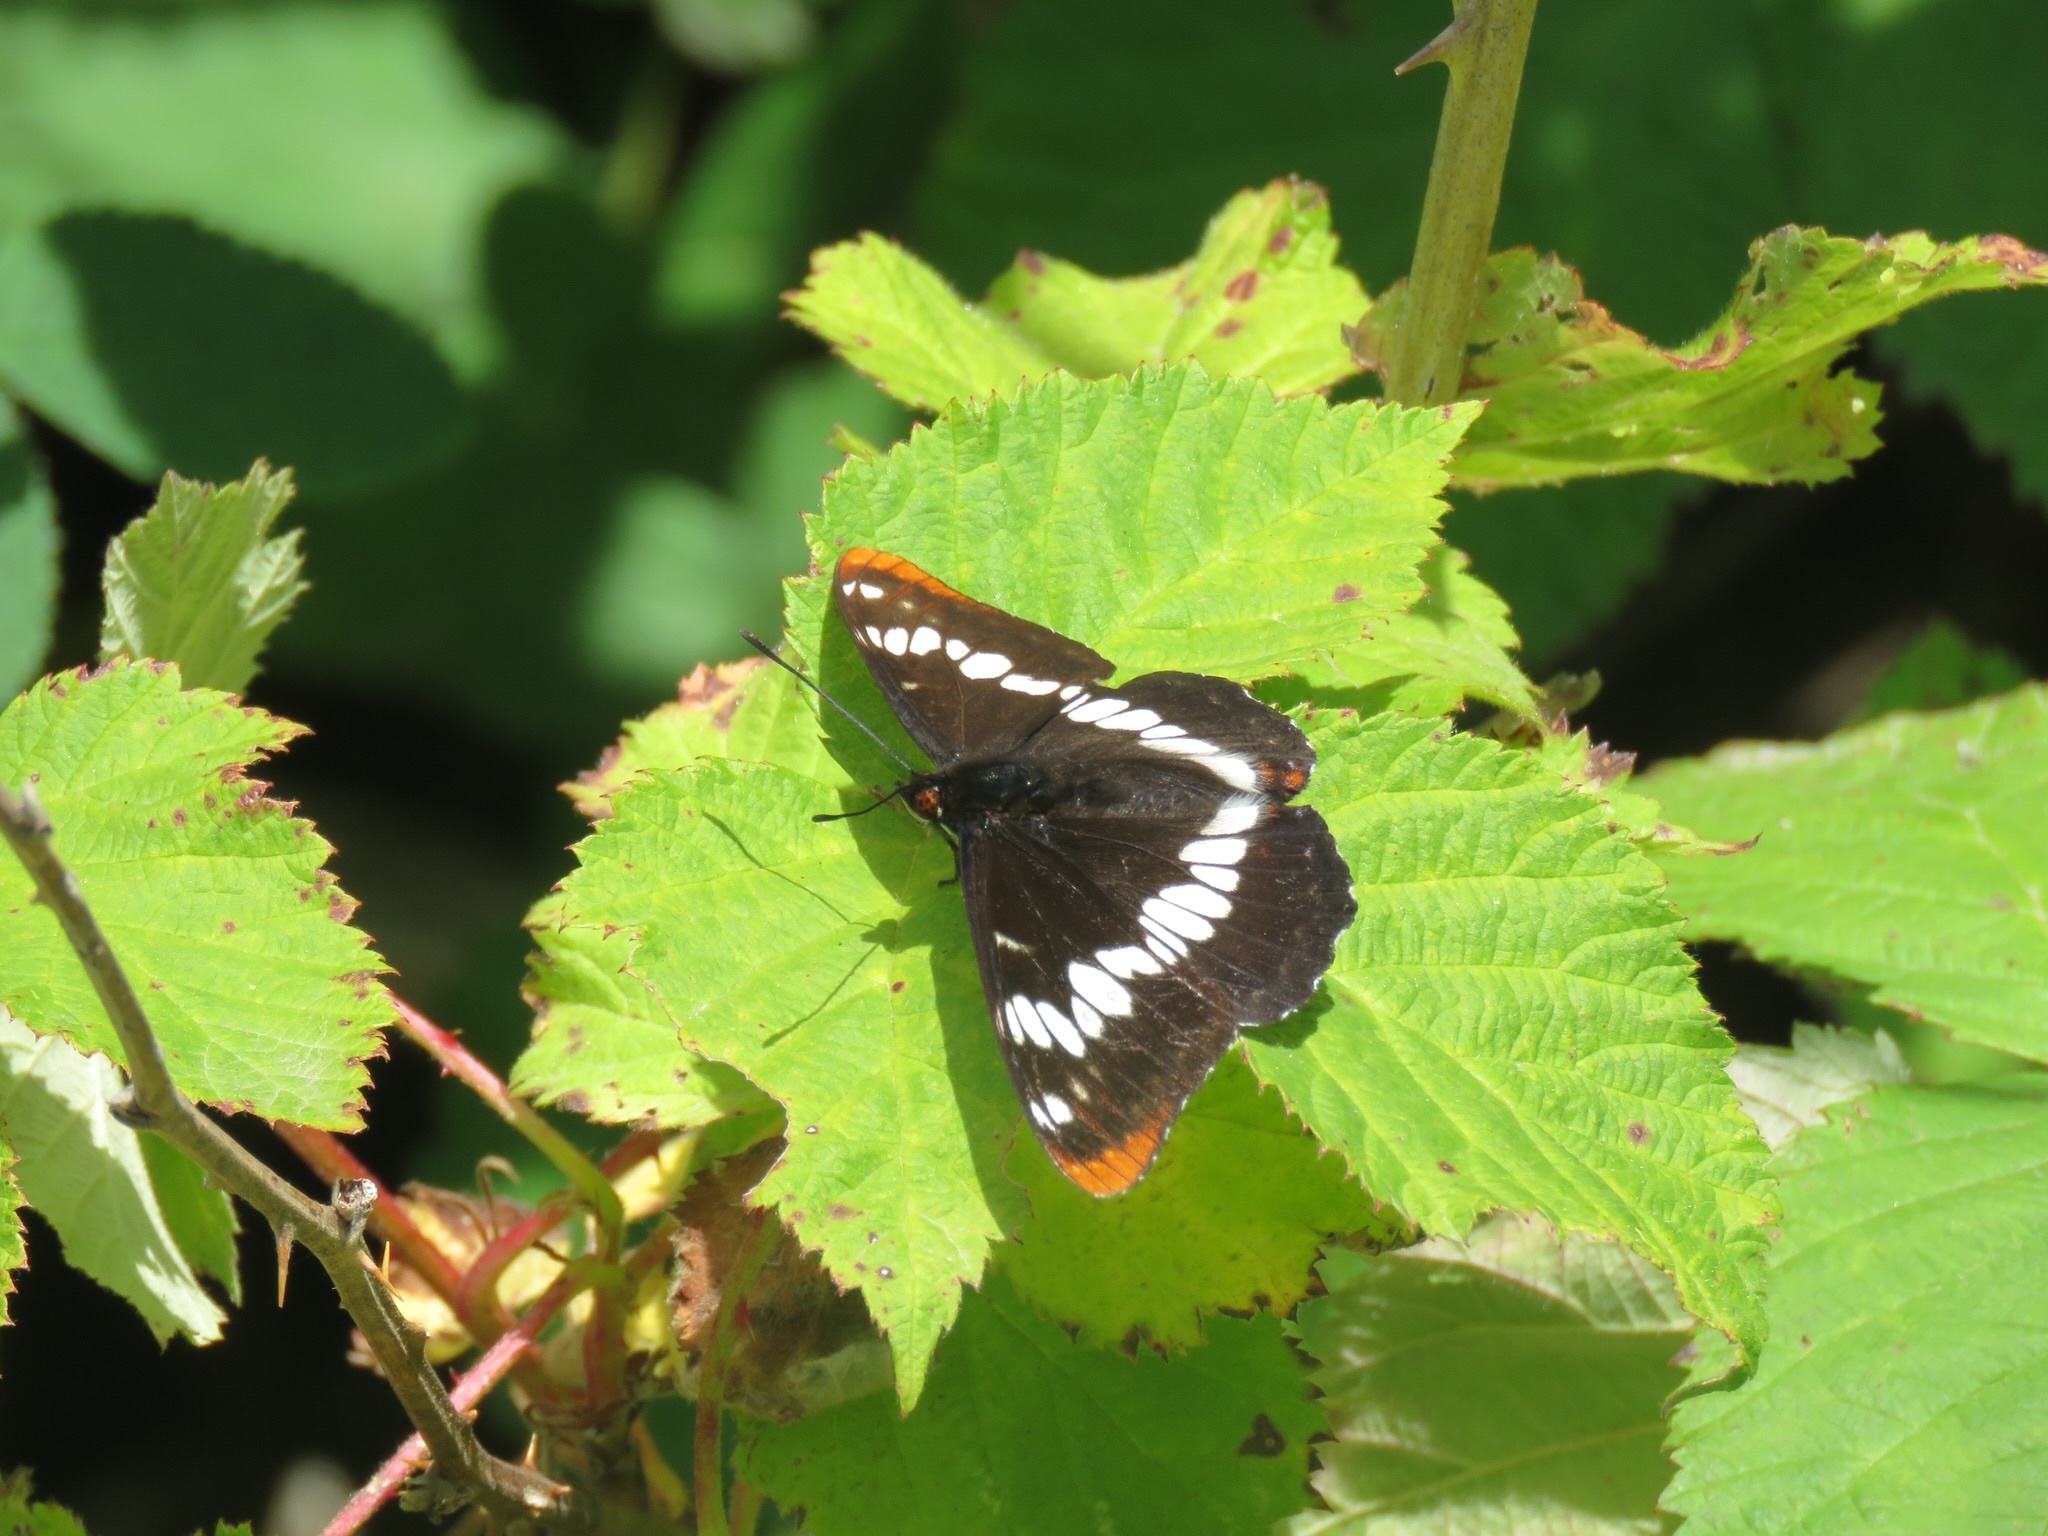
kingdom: Animalia
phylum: Arthropoda
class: Insecta
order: Lepidoptera
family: Nymphalidae
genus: Limenitis
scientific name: Limenitis lorquini
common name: Lorquin's admiral
